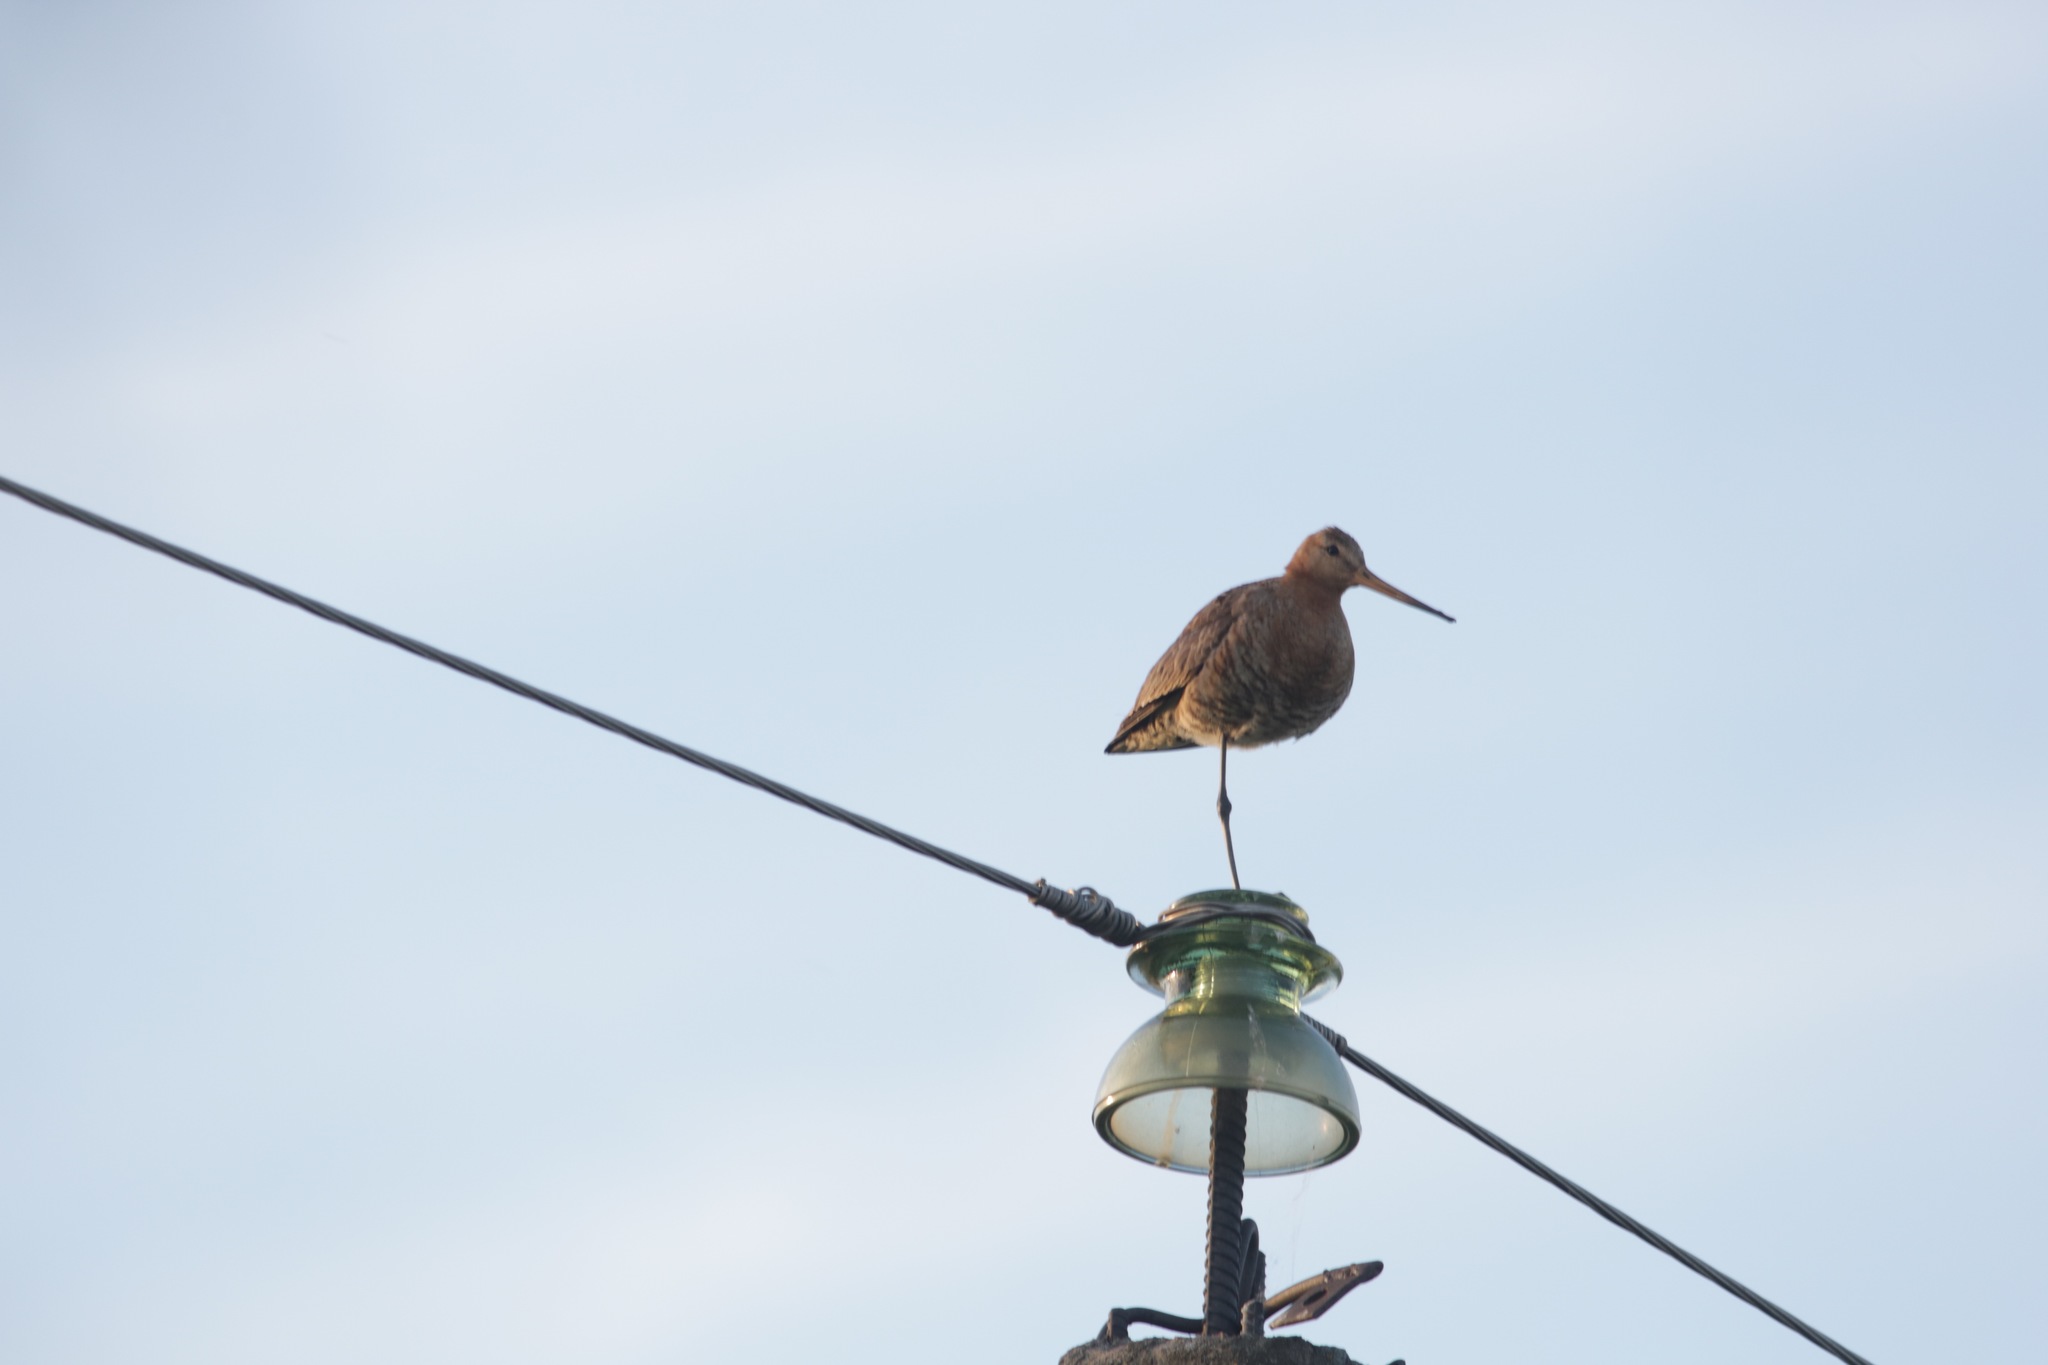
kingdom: Animalia
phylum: Chordata
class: Aves
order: Charadriiformes
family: Scolopacidae
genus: Limosa
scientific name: Limosa limosa
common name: Black-tailed godwit
